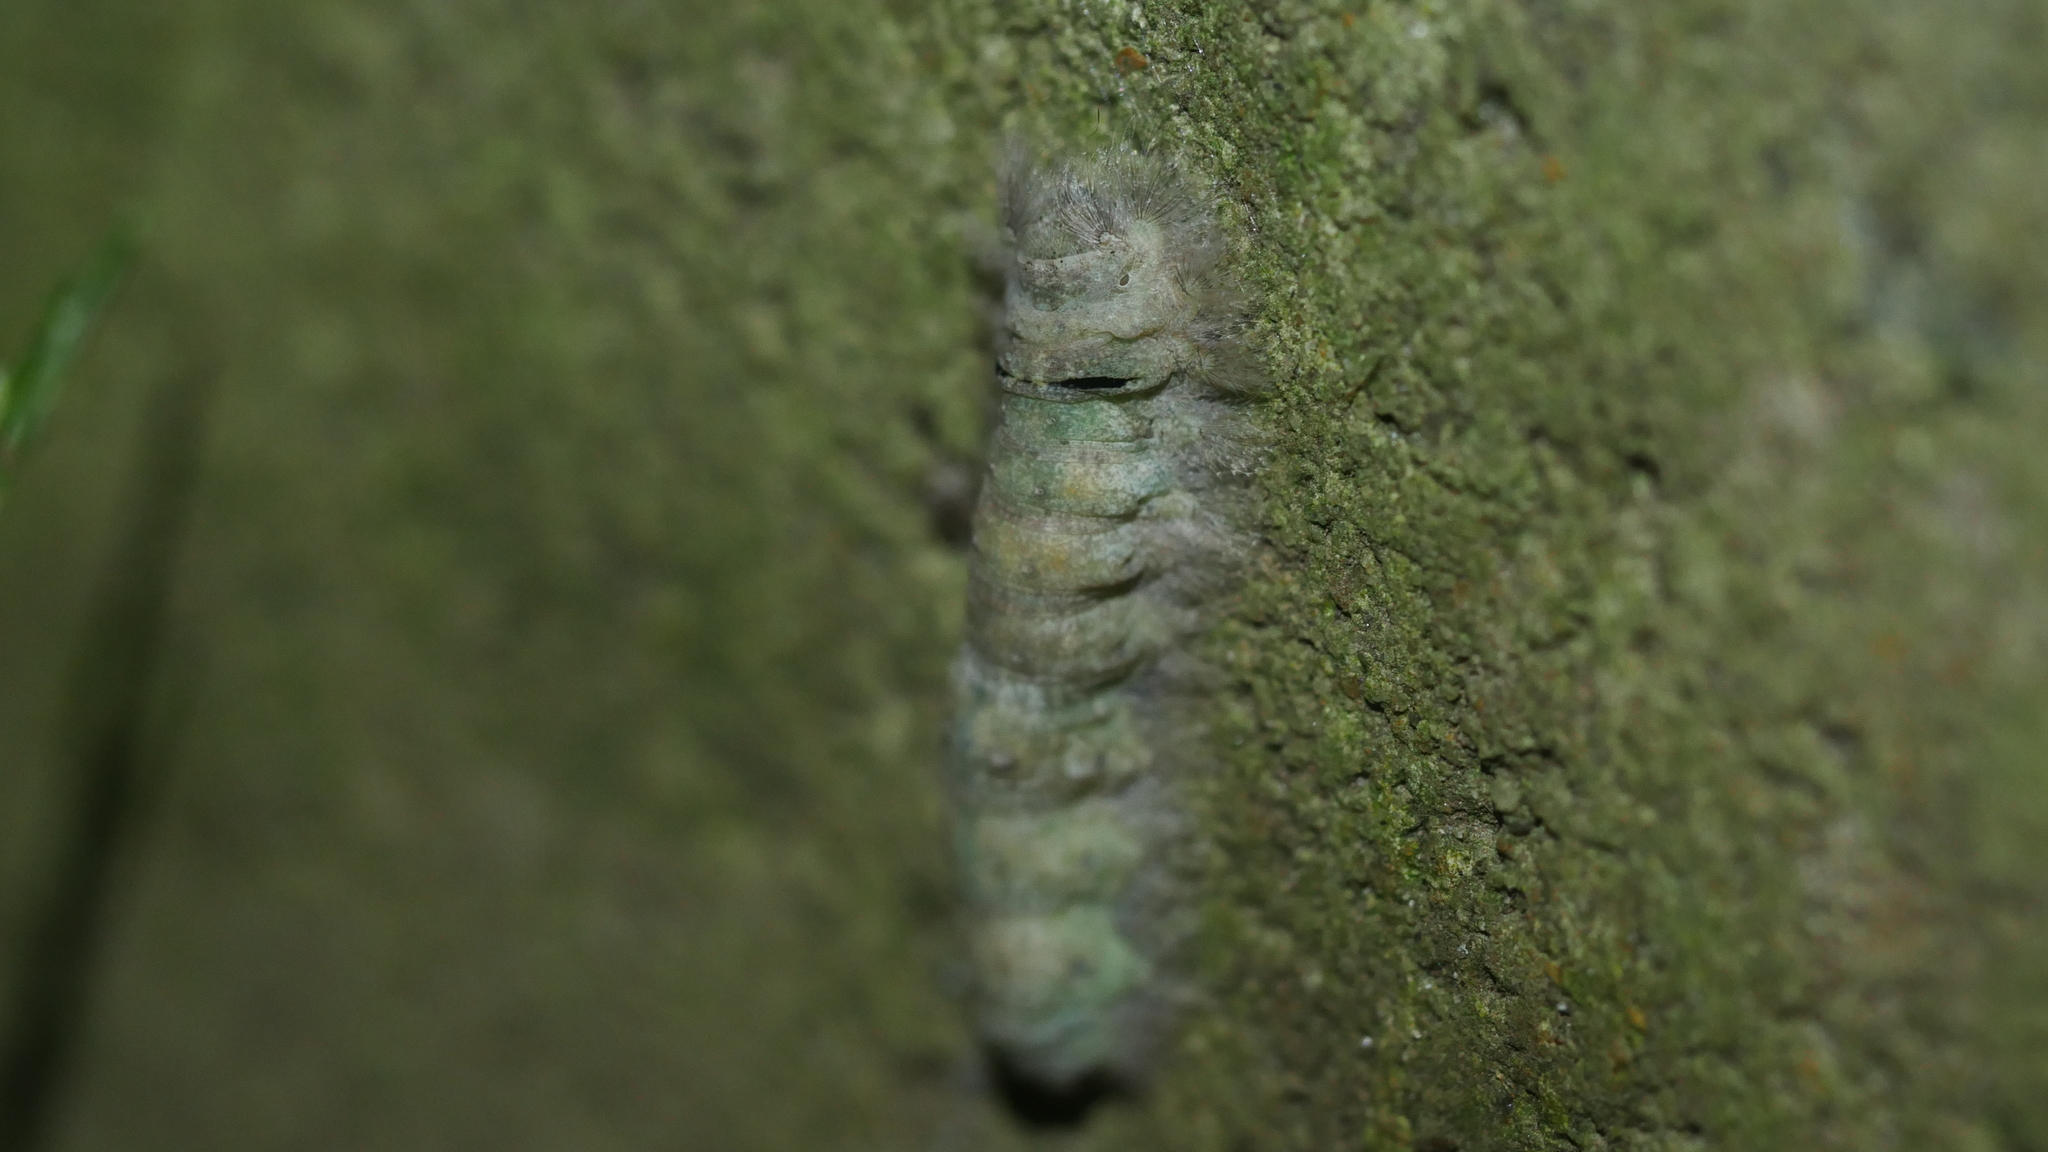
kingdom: Animalia
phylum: Arthropoda
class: Insecta
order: Lepidoptera
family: Lasiocampidae
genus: Artace
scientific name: Artace cribrarius
